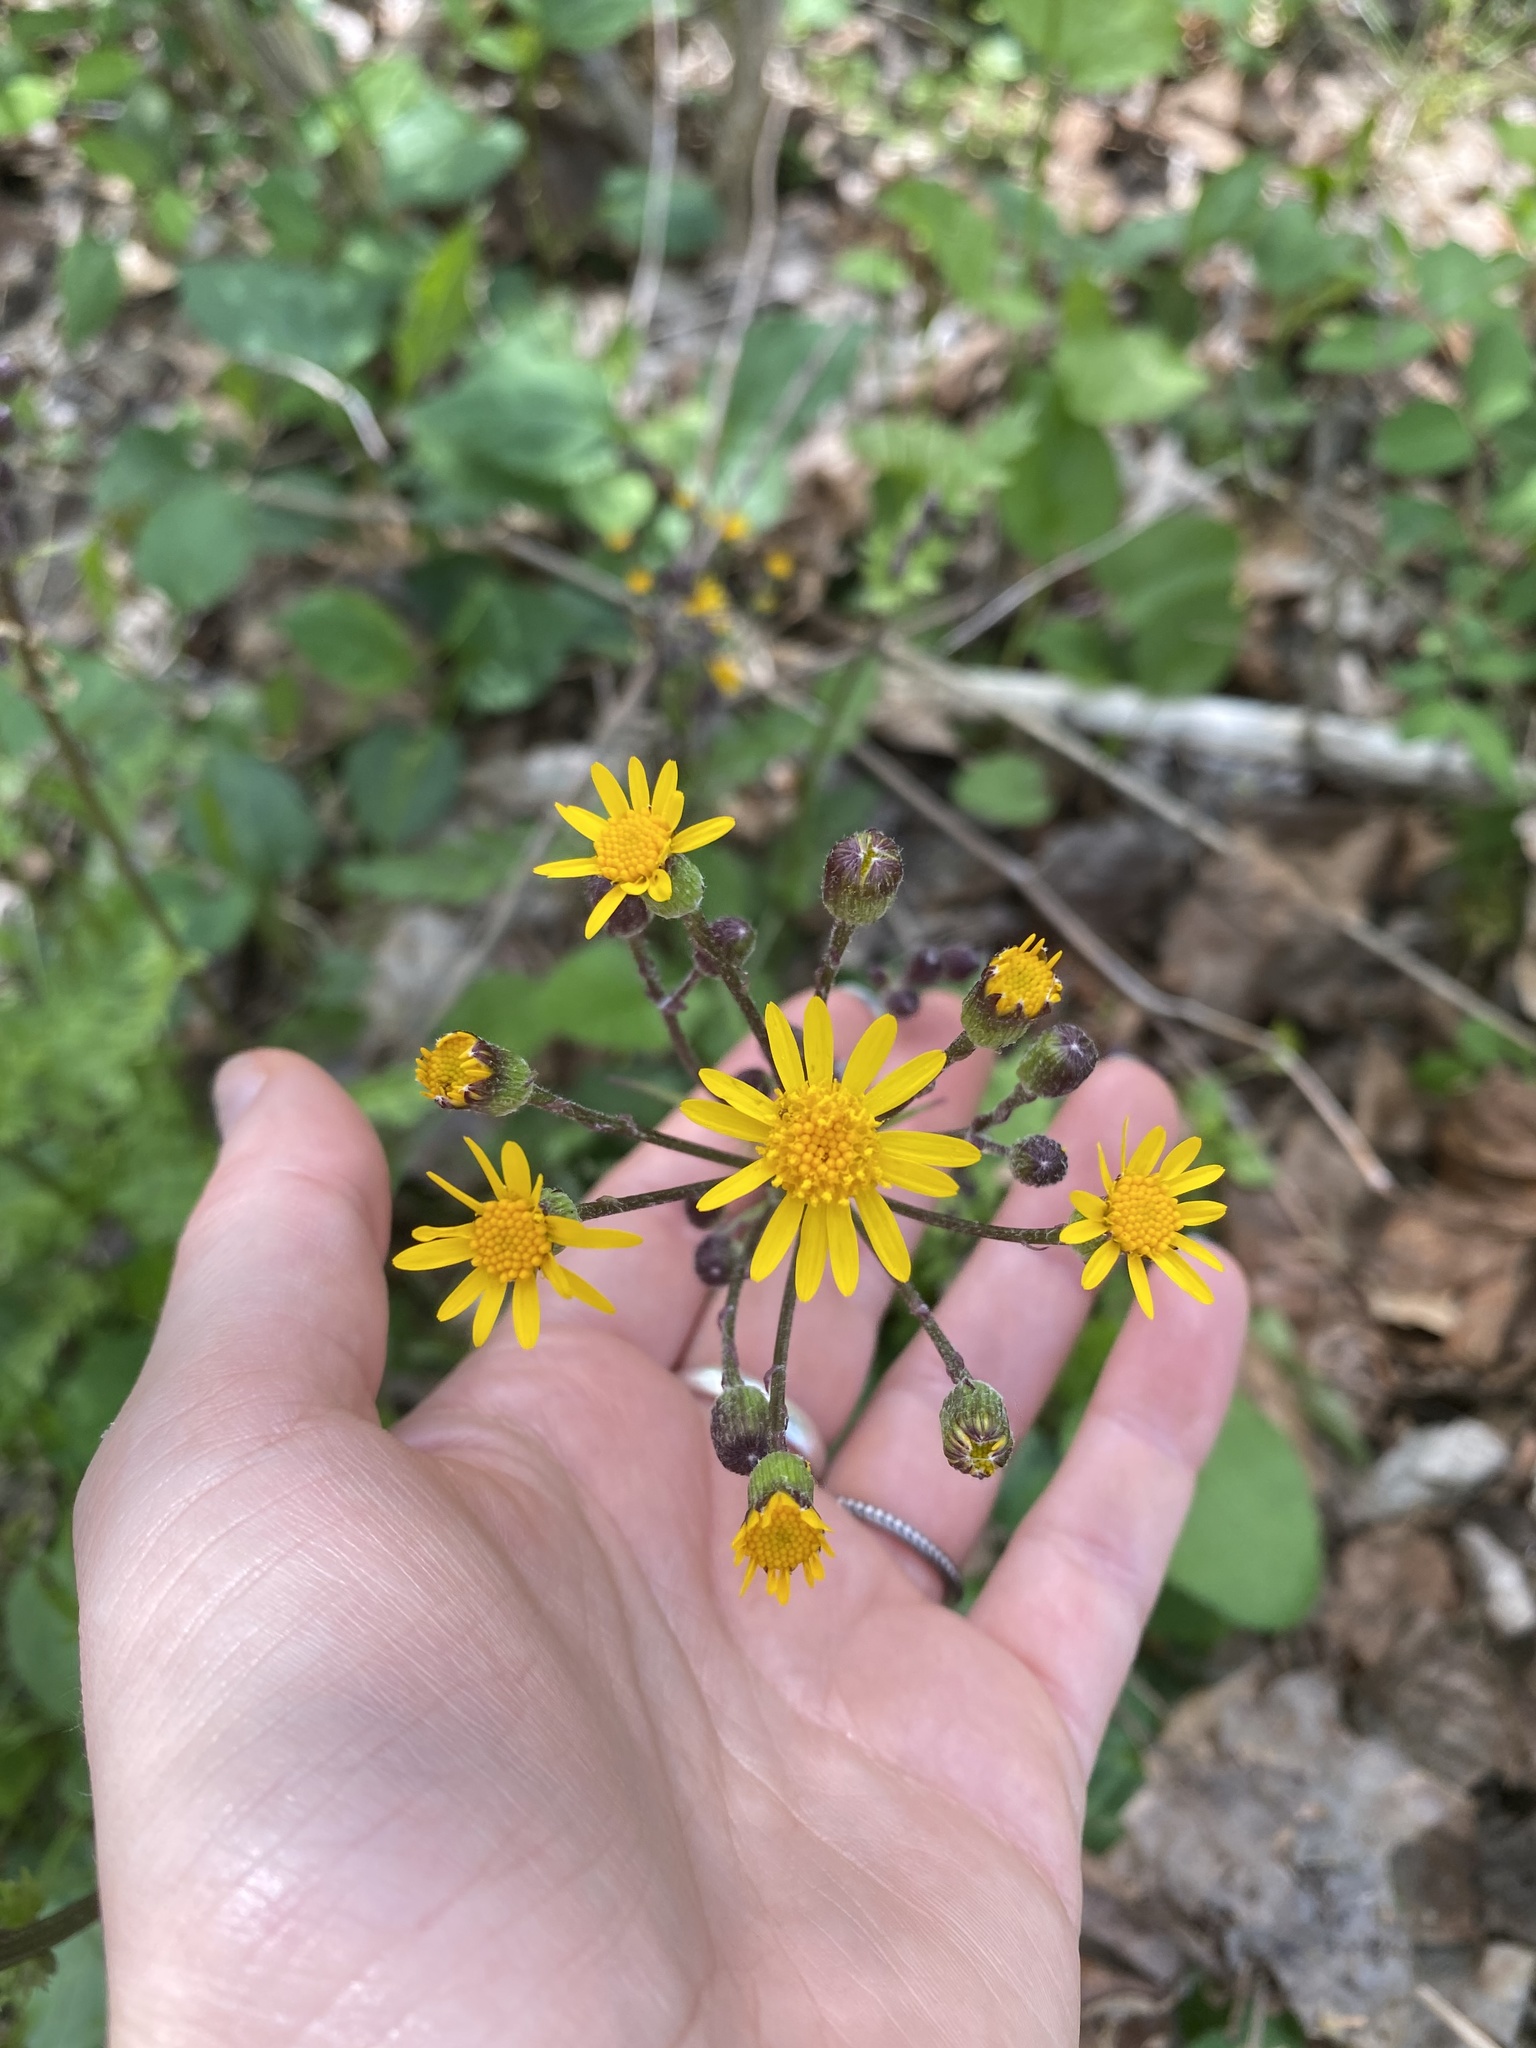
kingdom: Plantae
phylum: Tracheophyta
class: Magnoliopsida
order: Asterales
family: Asteraceae
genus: Packera
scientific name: Packera aurea
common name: Golden groundsel
